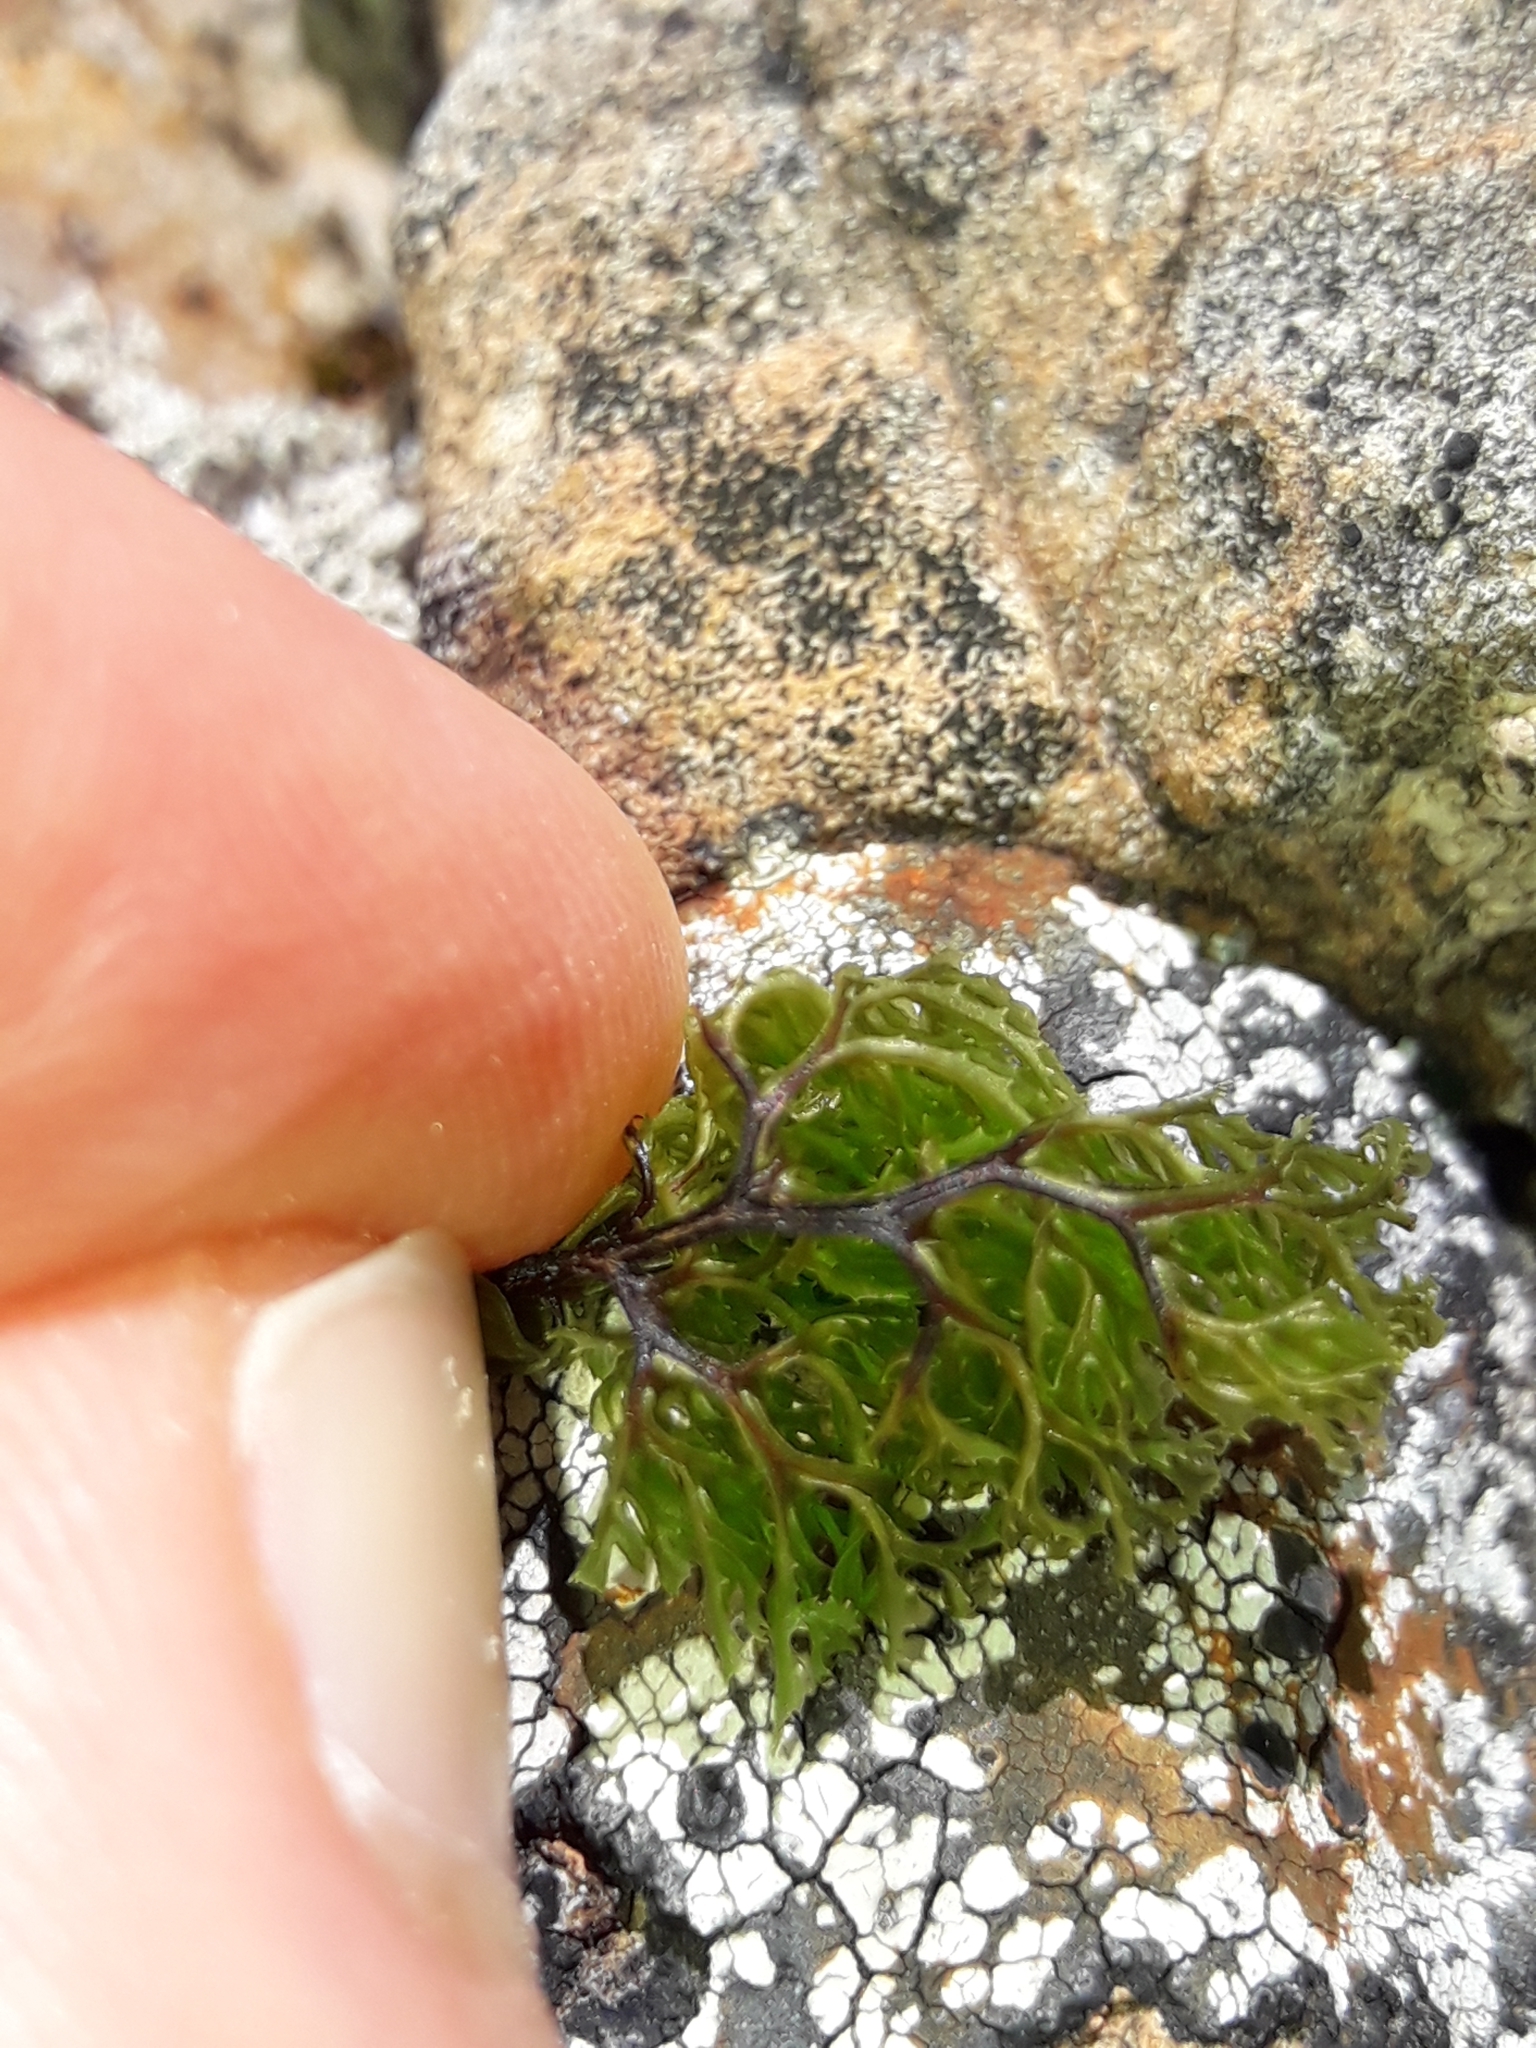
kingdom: Plantae
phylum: Tracheophyta
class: Polypodiopsida
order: Hymenophyllales
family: Hymenophyllaceae
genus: Hymenophyllum
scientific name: Hymenophyllum multifidum
